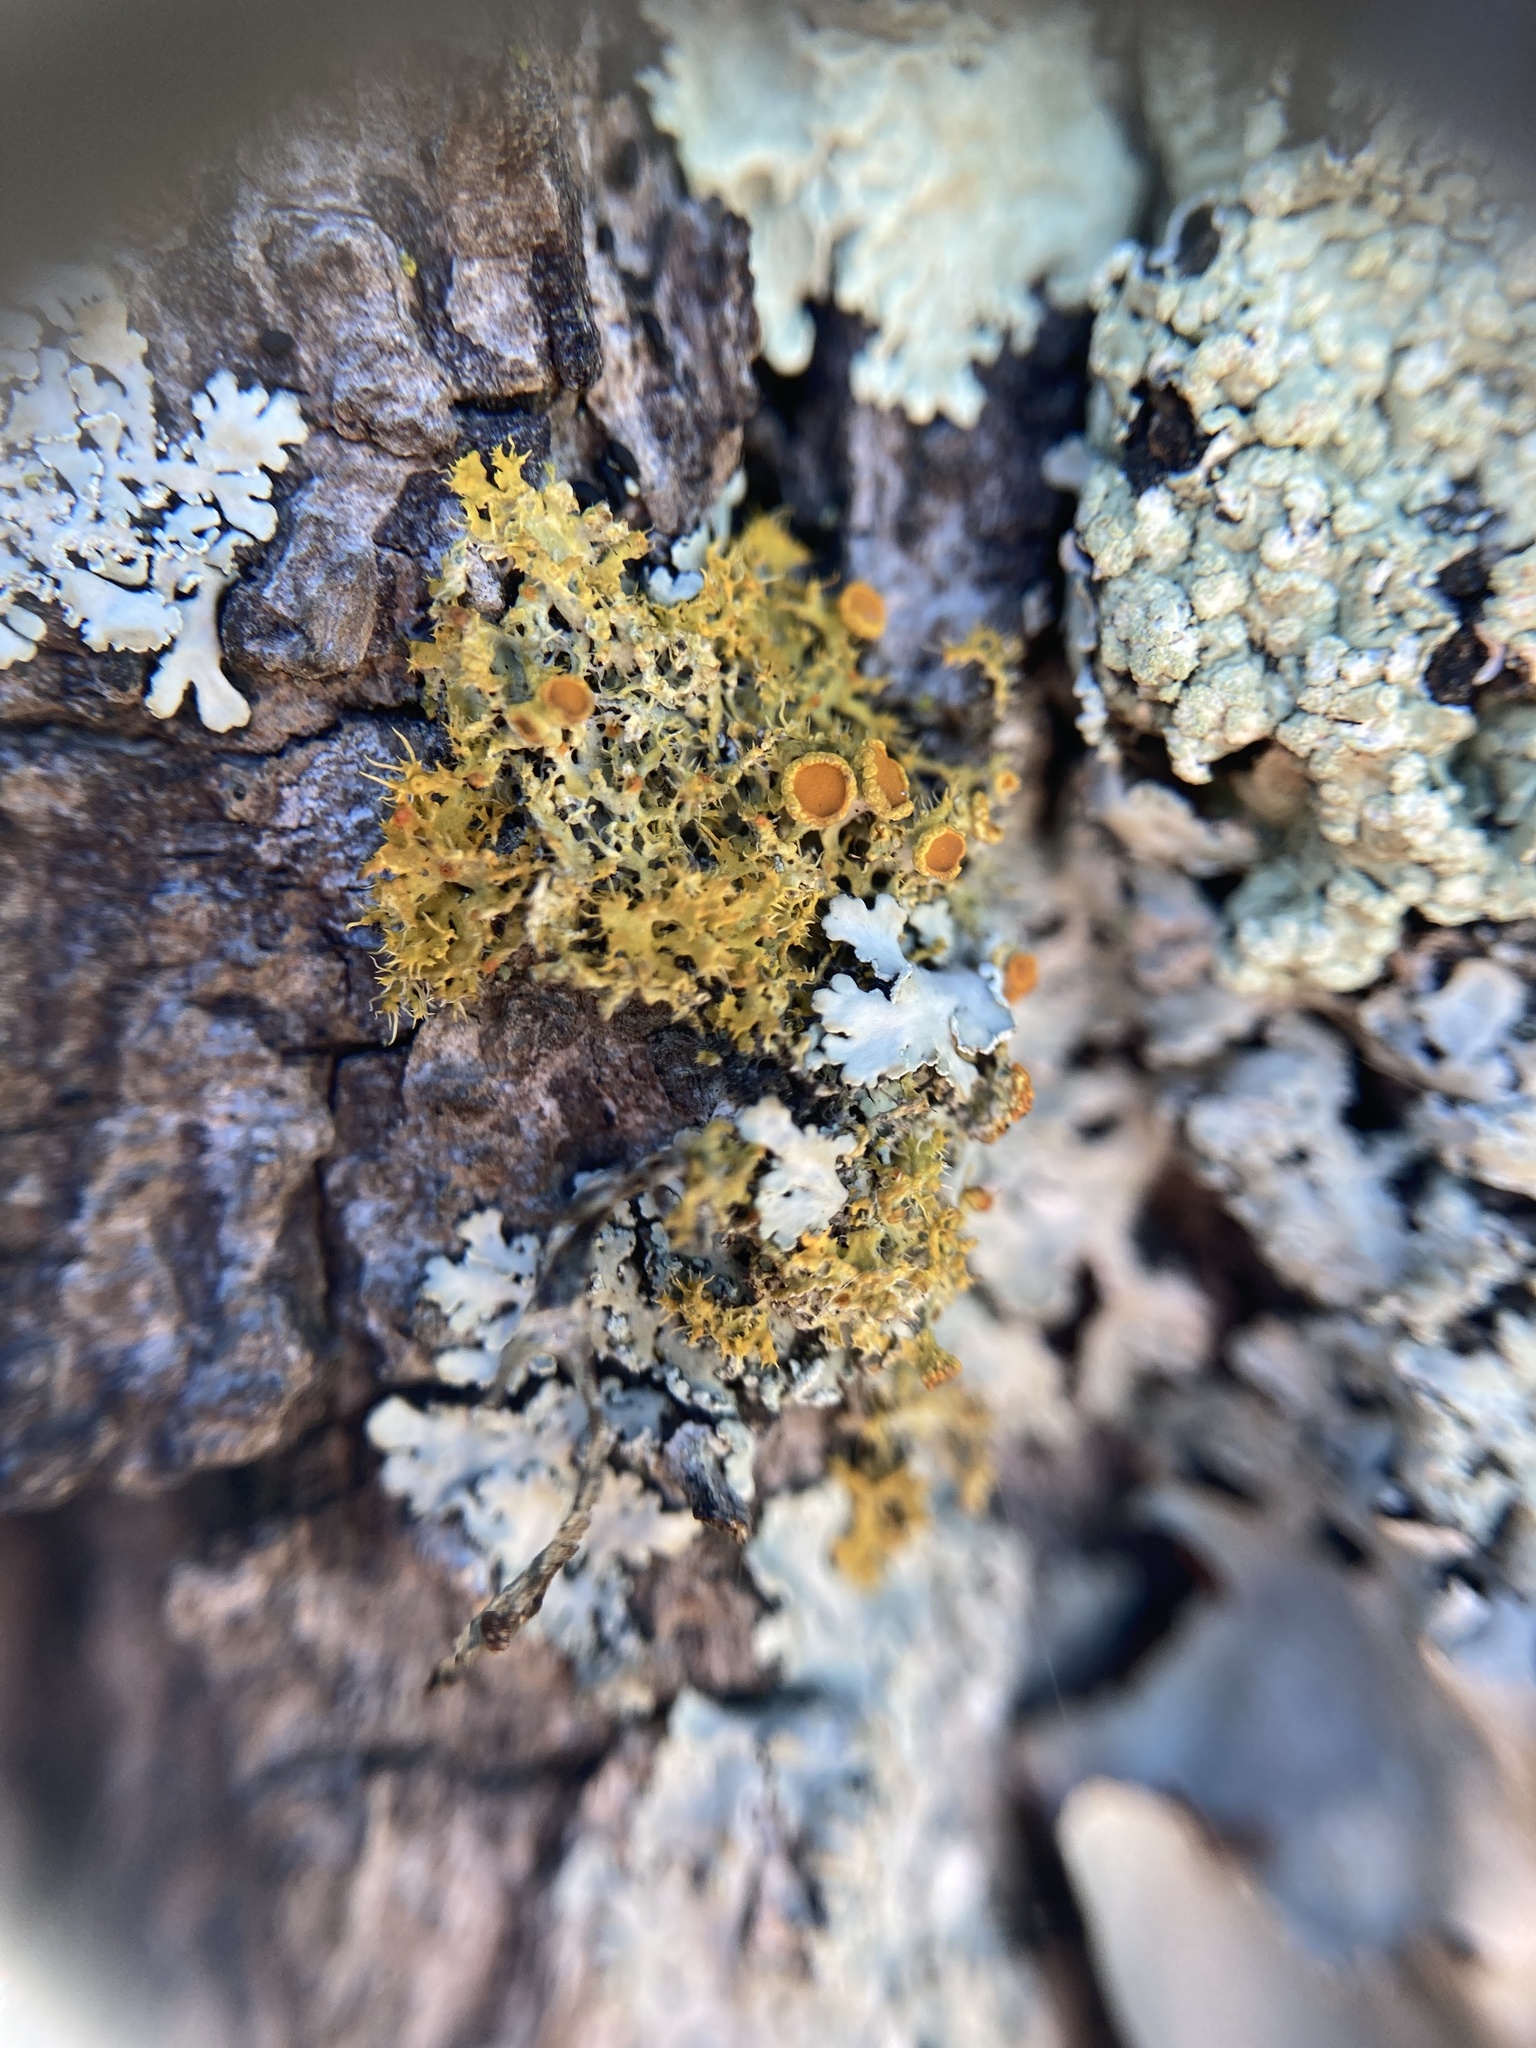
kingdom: Fungi
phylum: Ascomycota
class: Lecanoromycetes
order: Teloschistales
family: Teloschistaceae
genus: Teloschistes
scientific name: Teloschistes sieberianus
